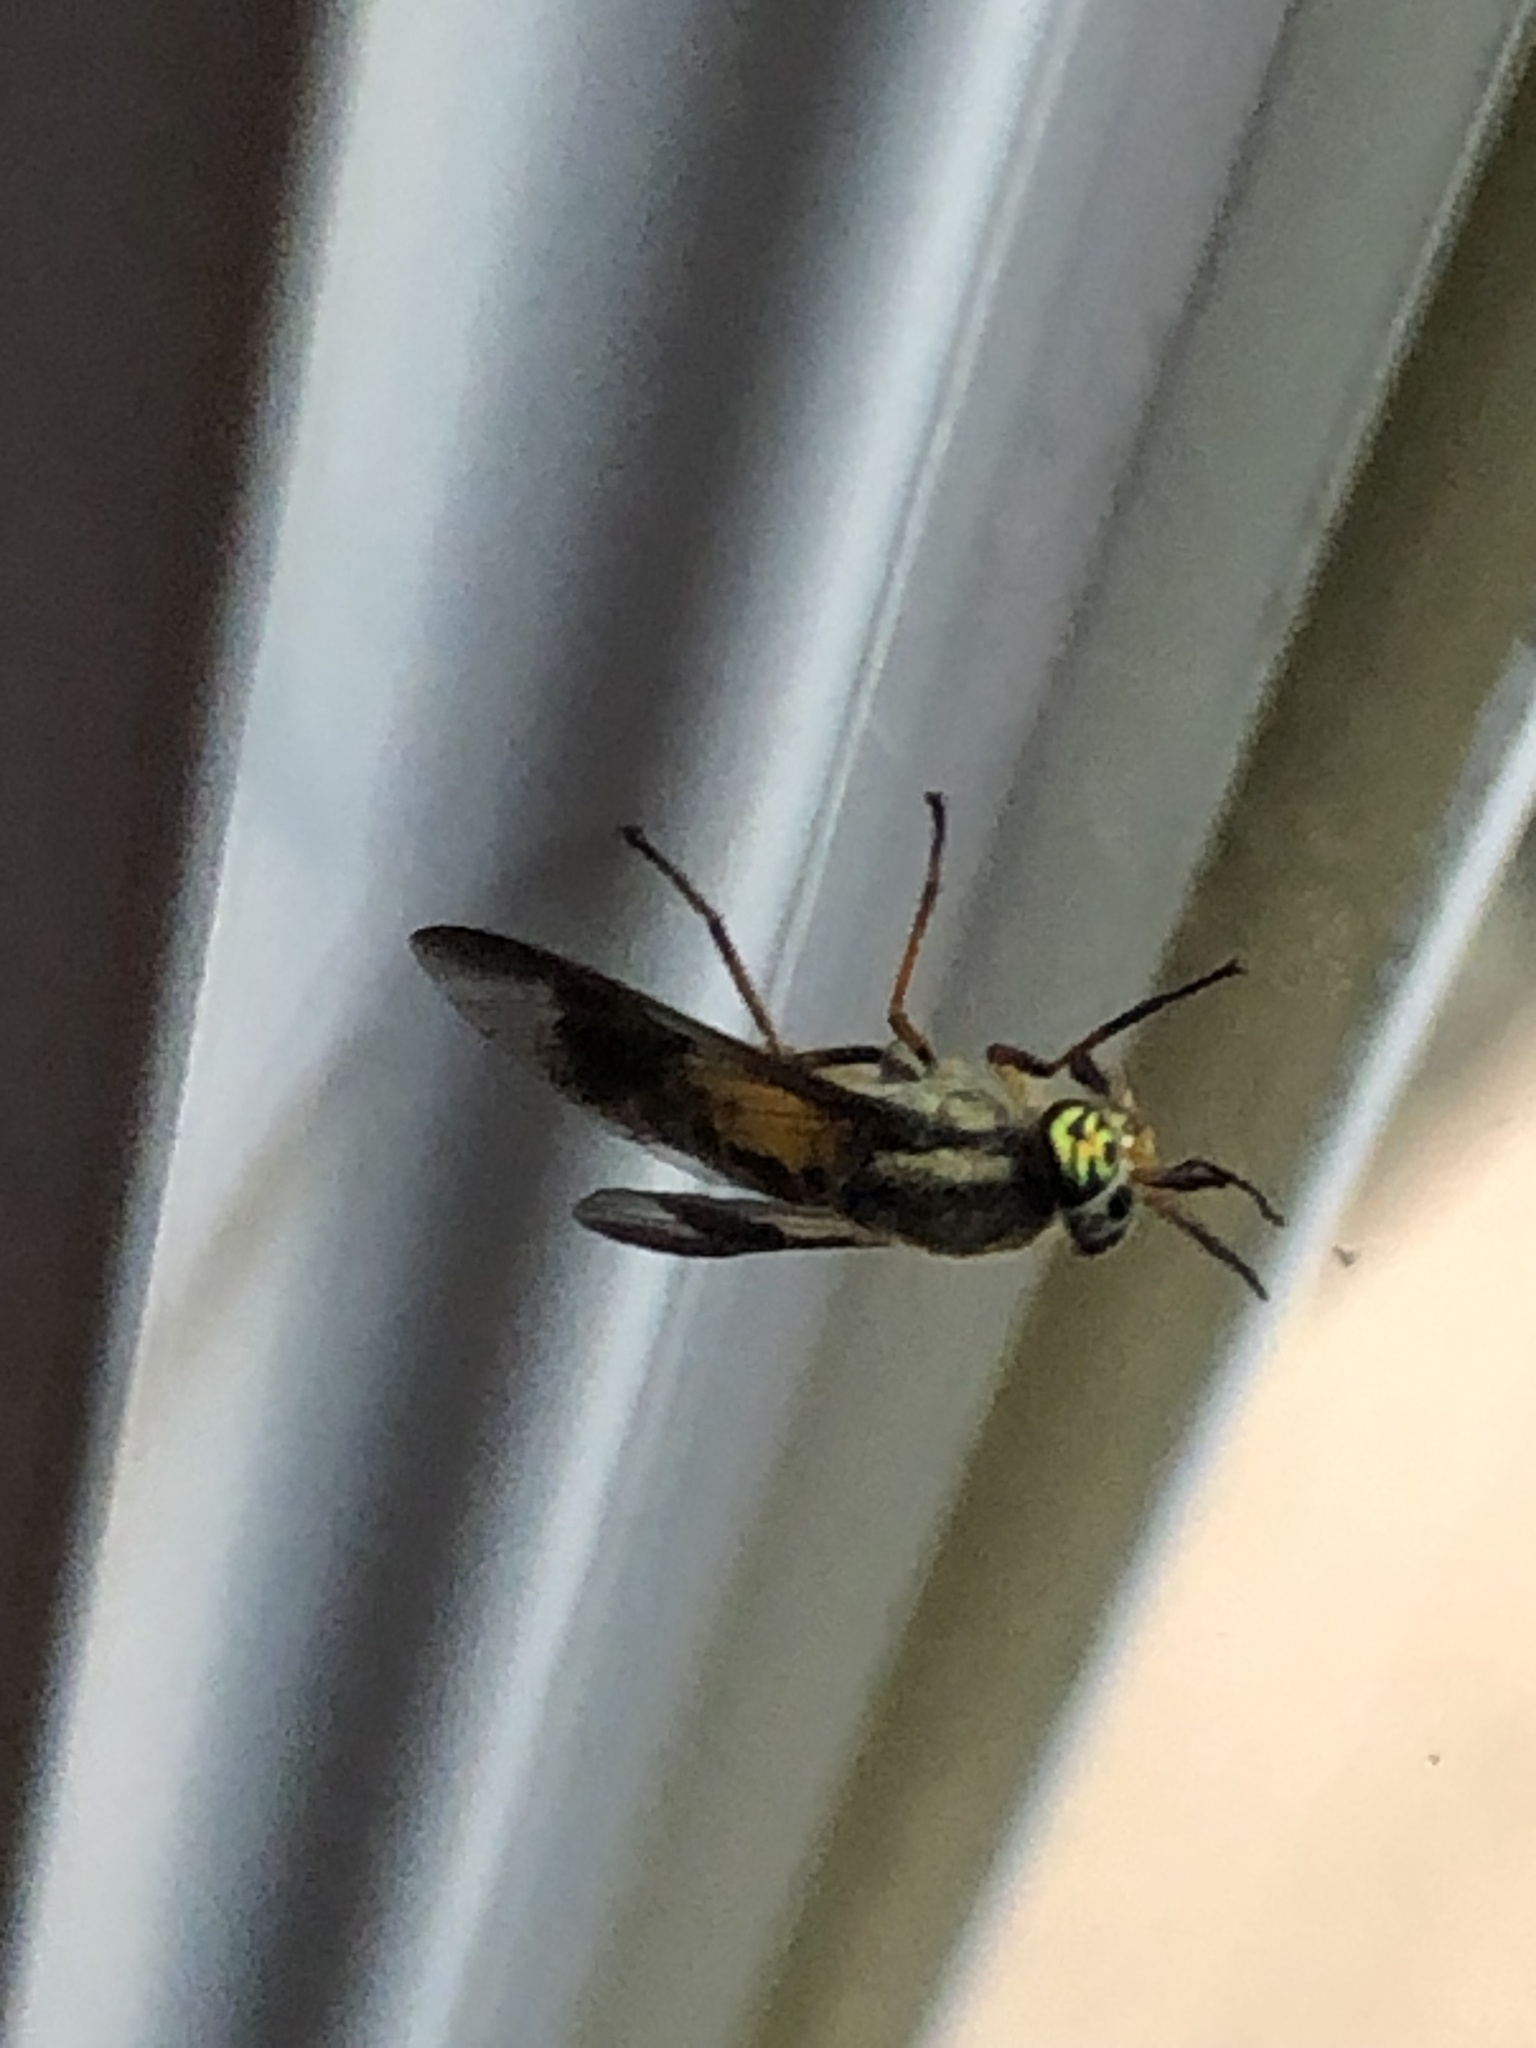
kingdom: Animalia
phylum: Arthropoda
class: Insecta
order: Diptera
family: Tabanidae
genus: Chrysops
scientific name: Chrysops montanus
